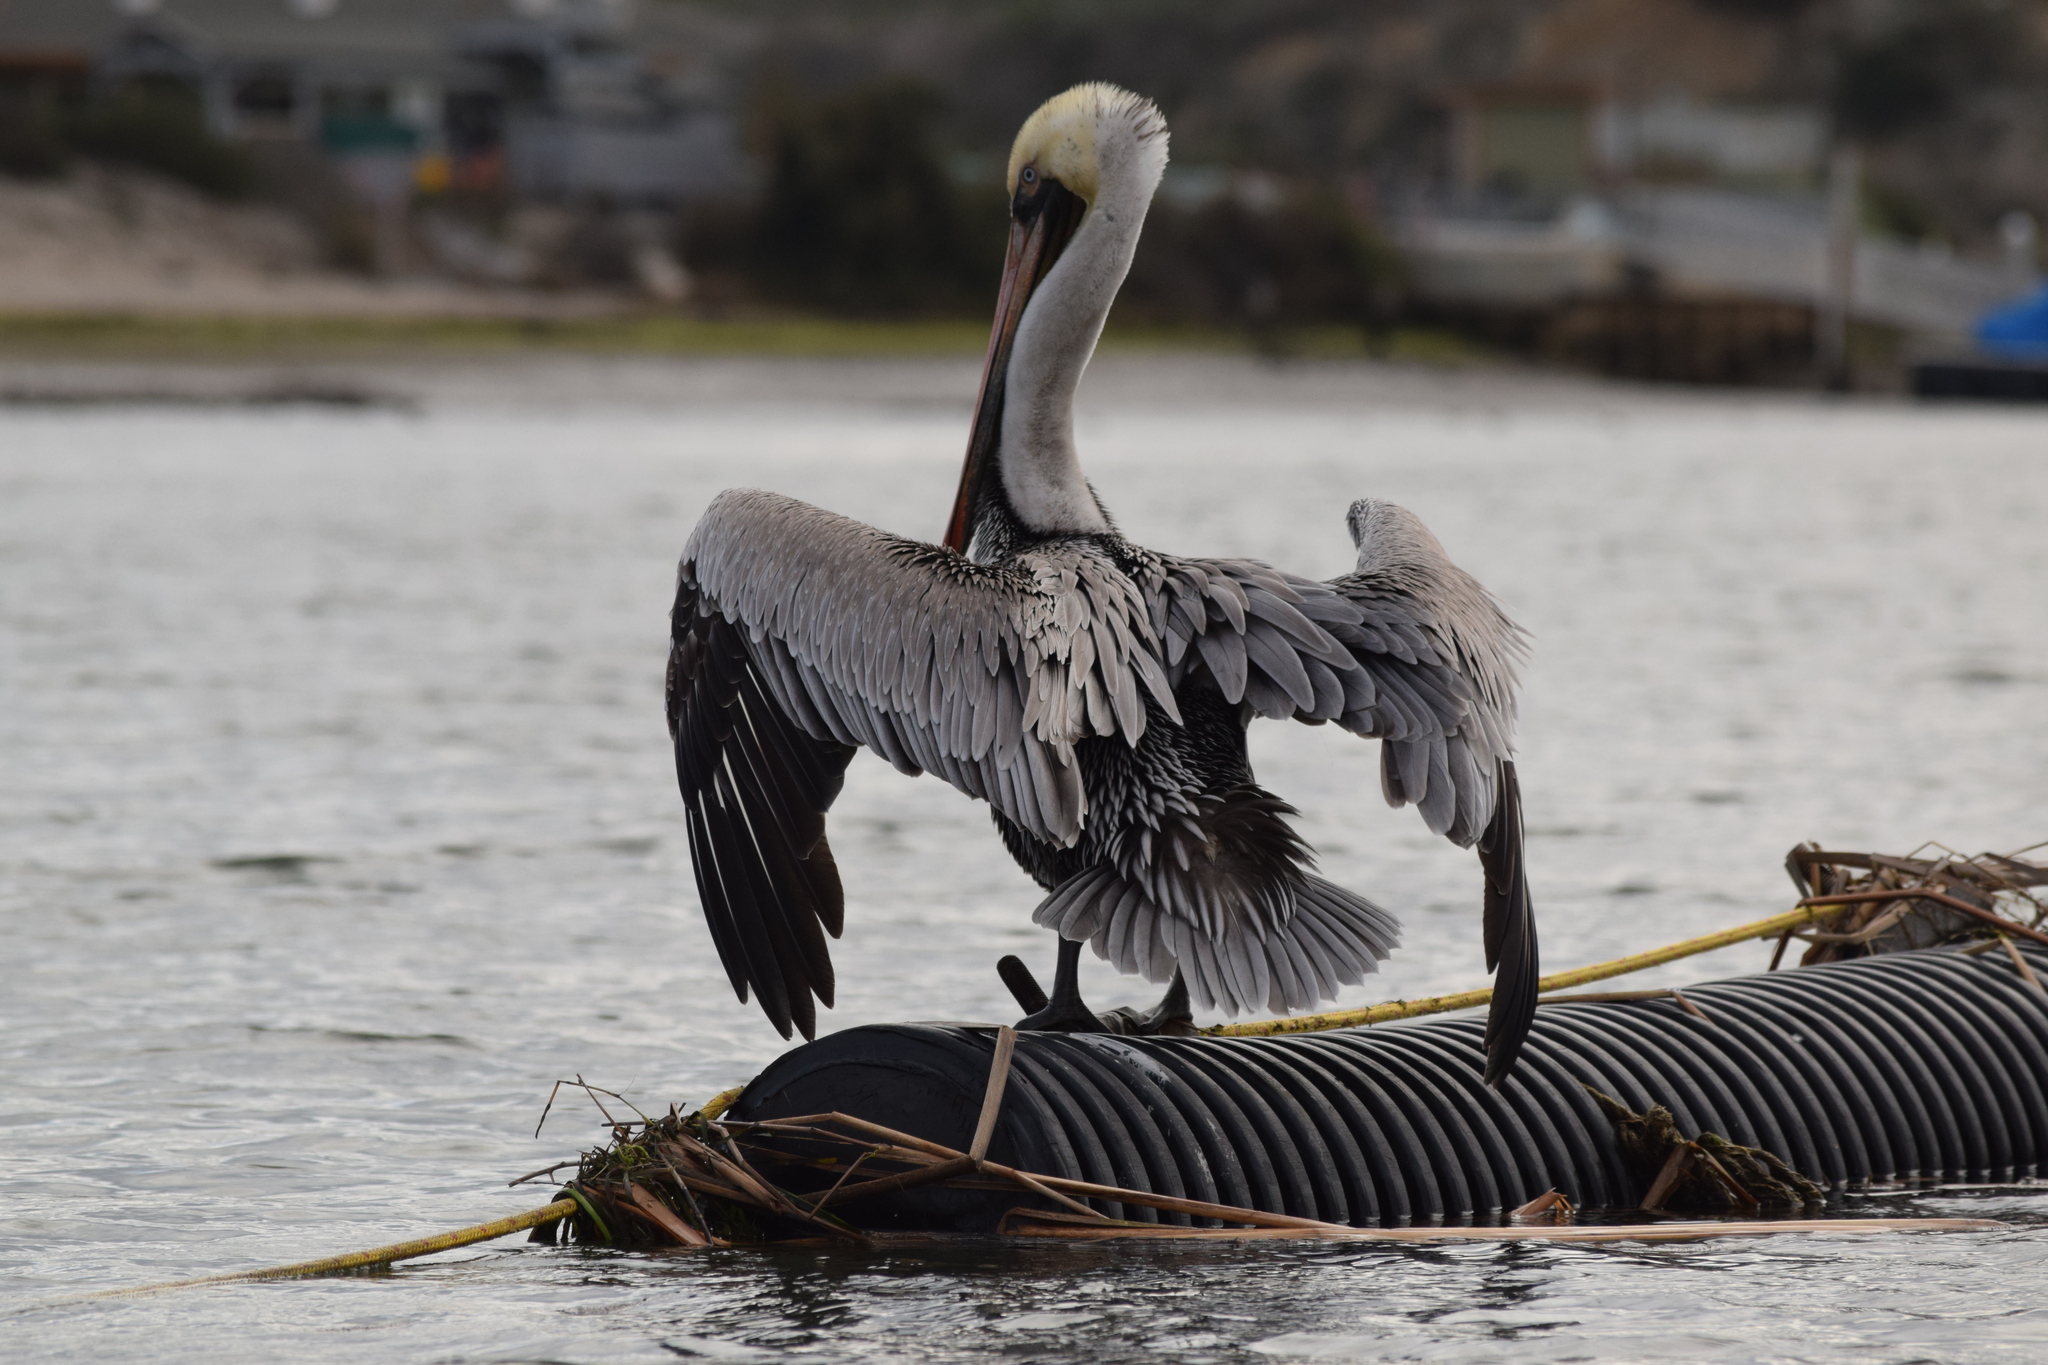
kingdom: Animalia
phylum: Chordata
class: Aves
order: Pelecaniformes
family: Pelecanidae
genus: Pelecanus
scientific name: Pelecanus occidentalis
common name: Brown pelican
